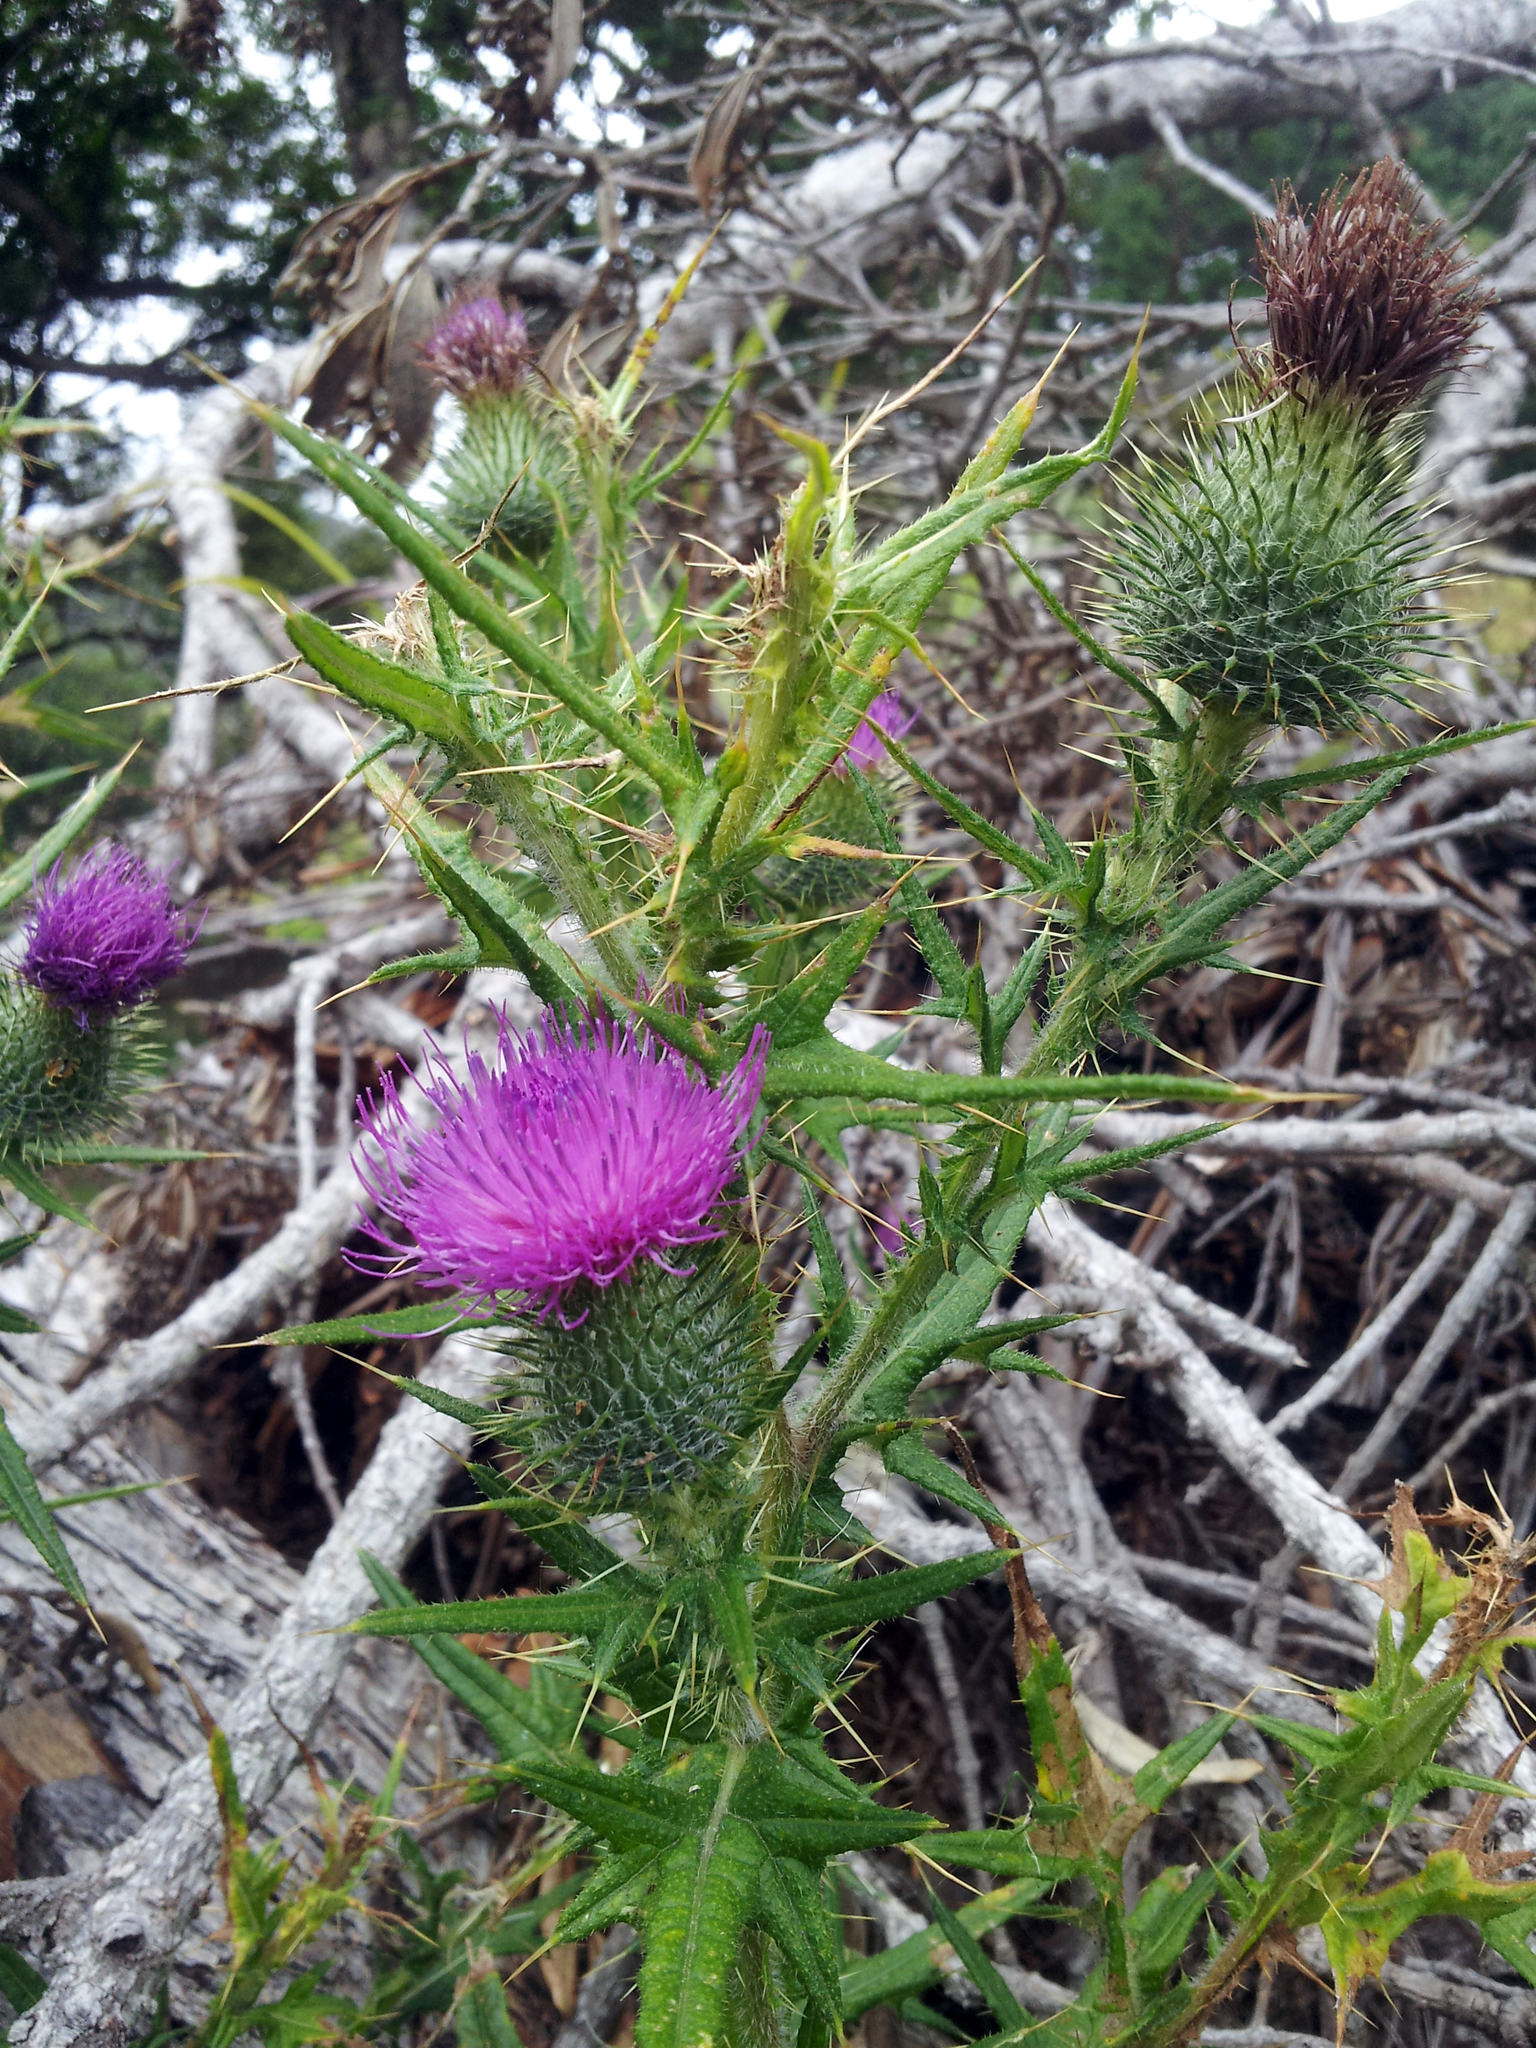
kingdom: Plantae
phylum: Tracheophyta
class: Magnoliopsida
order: Asterales
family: Asteraceae
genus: Cirsium
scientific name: Cirsium vulgare
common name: Bull thistle
